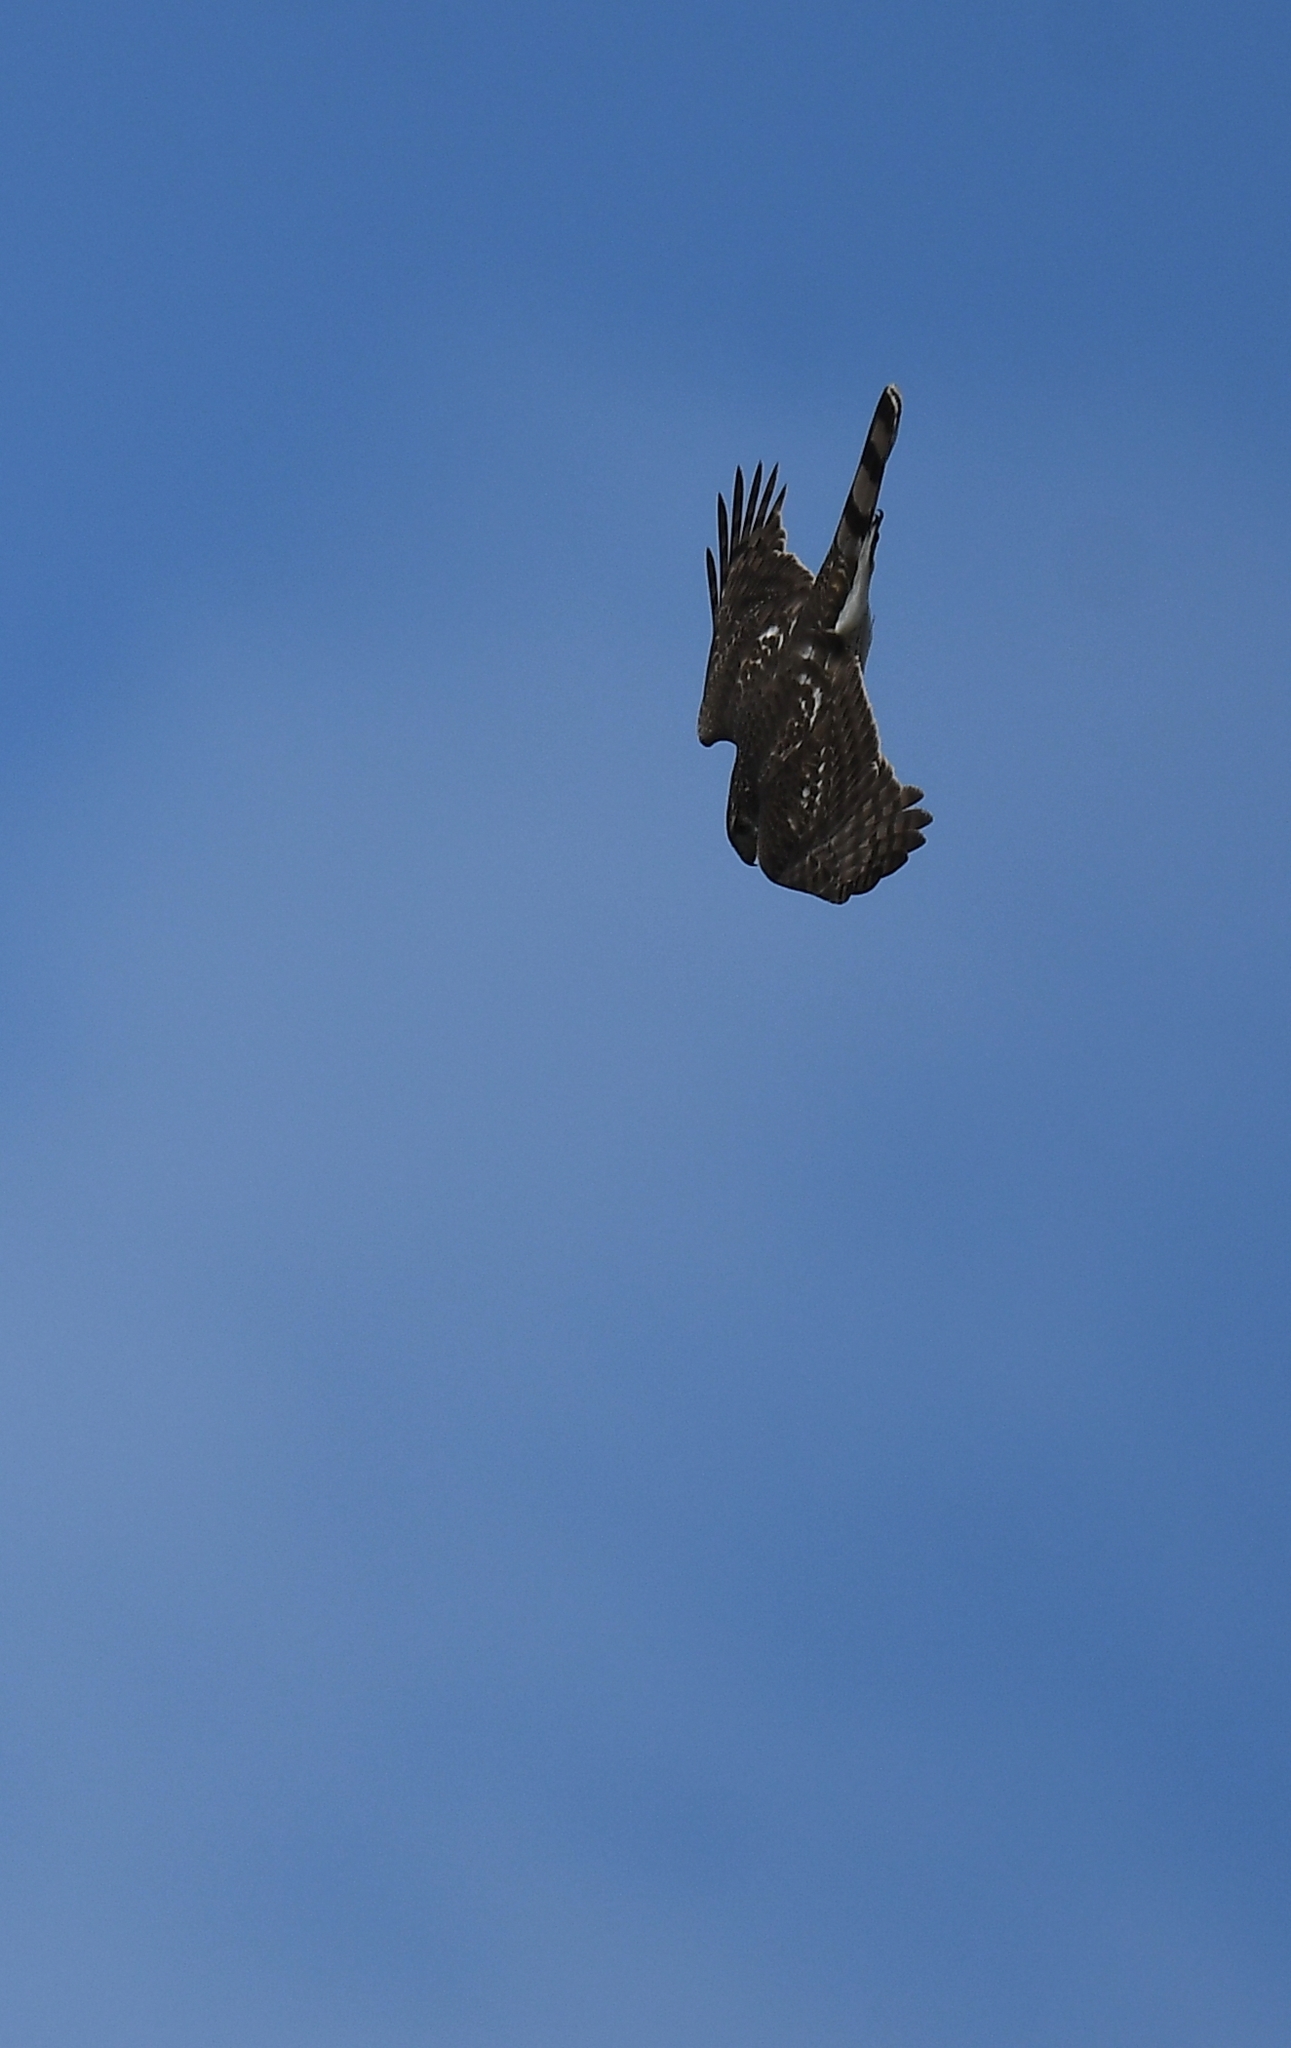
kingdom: Animalia
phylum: Chordata
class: Aves
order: Accipitriformes
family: Accipitridae
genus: Accipiter
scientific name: Accipiter cooperii
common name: Cooper's hawk
